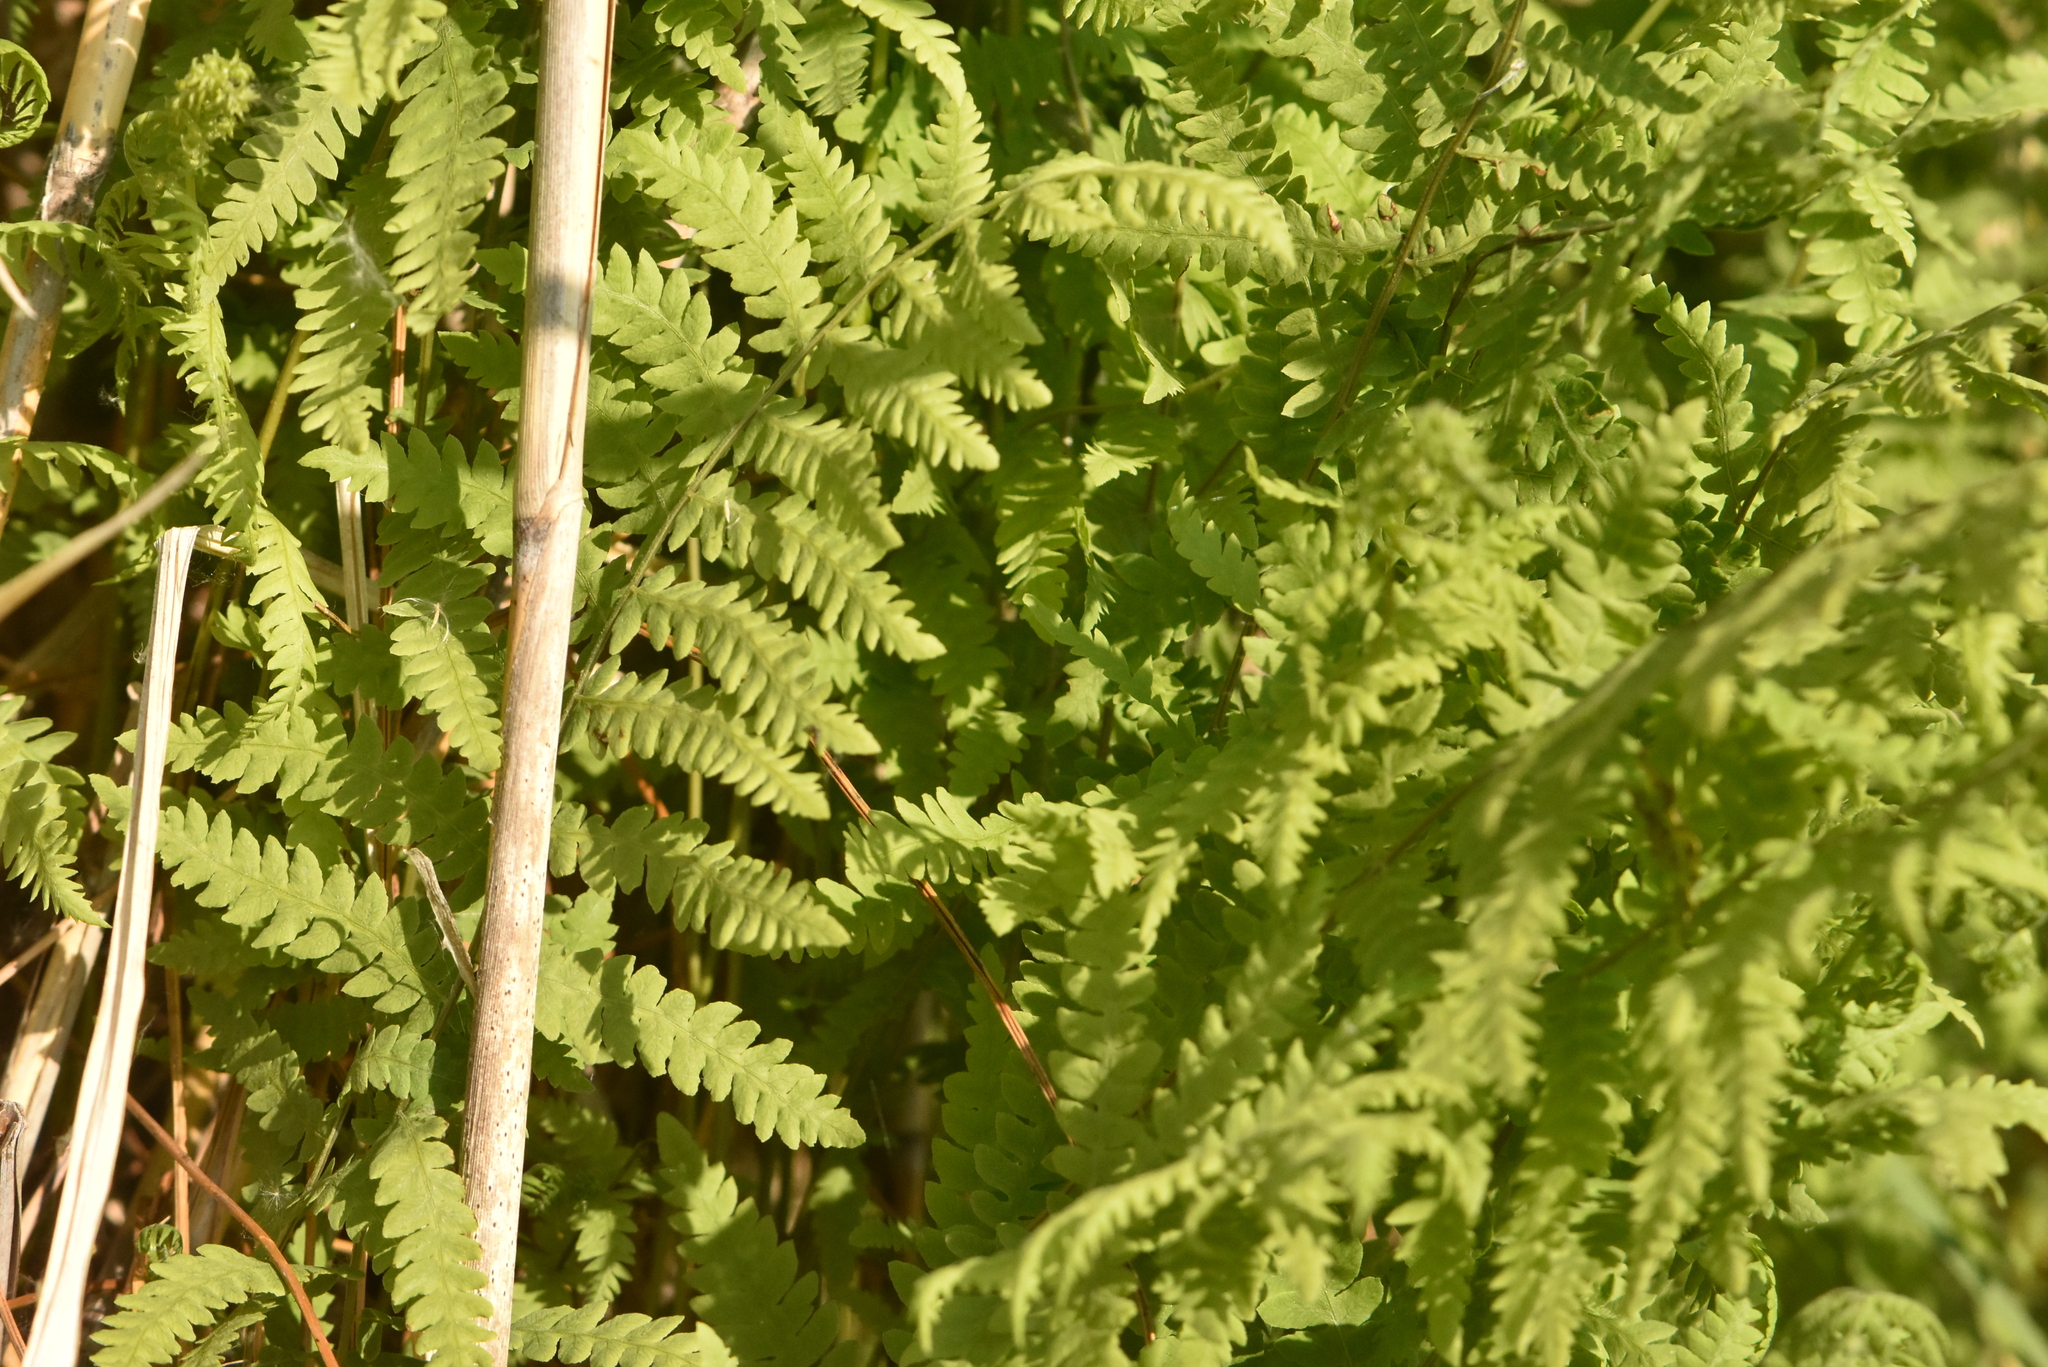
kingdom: Plantae
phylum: Tracheophyta
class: Polypodiopsida
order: Polypodiales
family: Thelypteridaceae
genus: Thelypteris
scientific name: Thelypteris palustris
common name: Marsh fern
